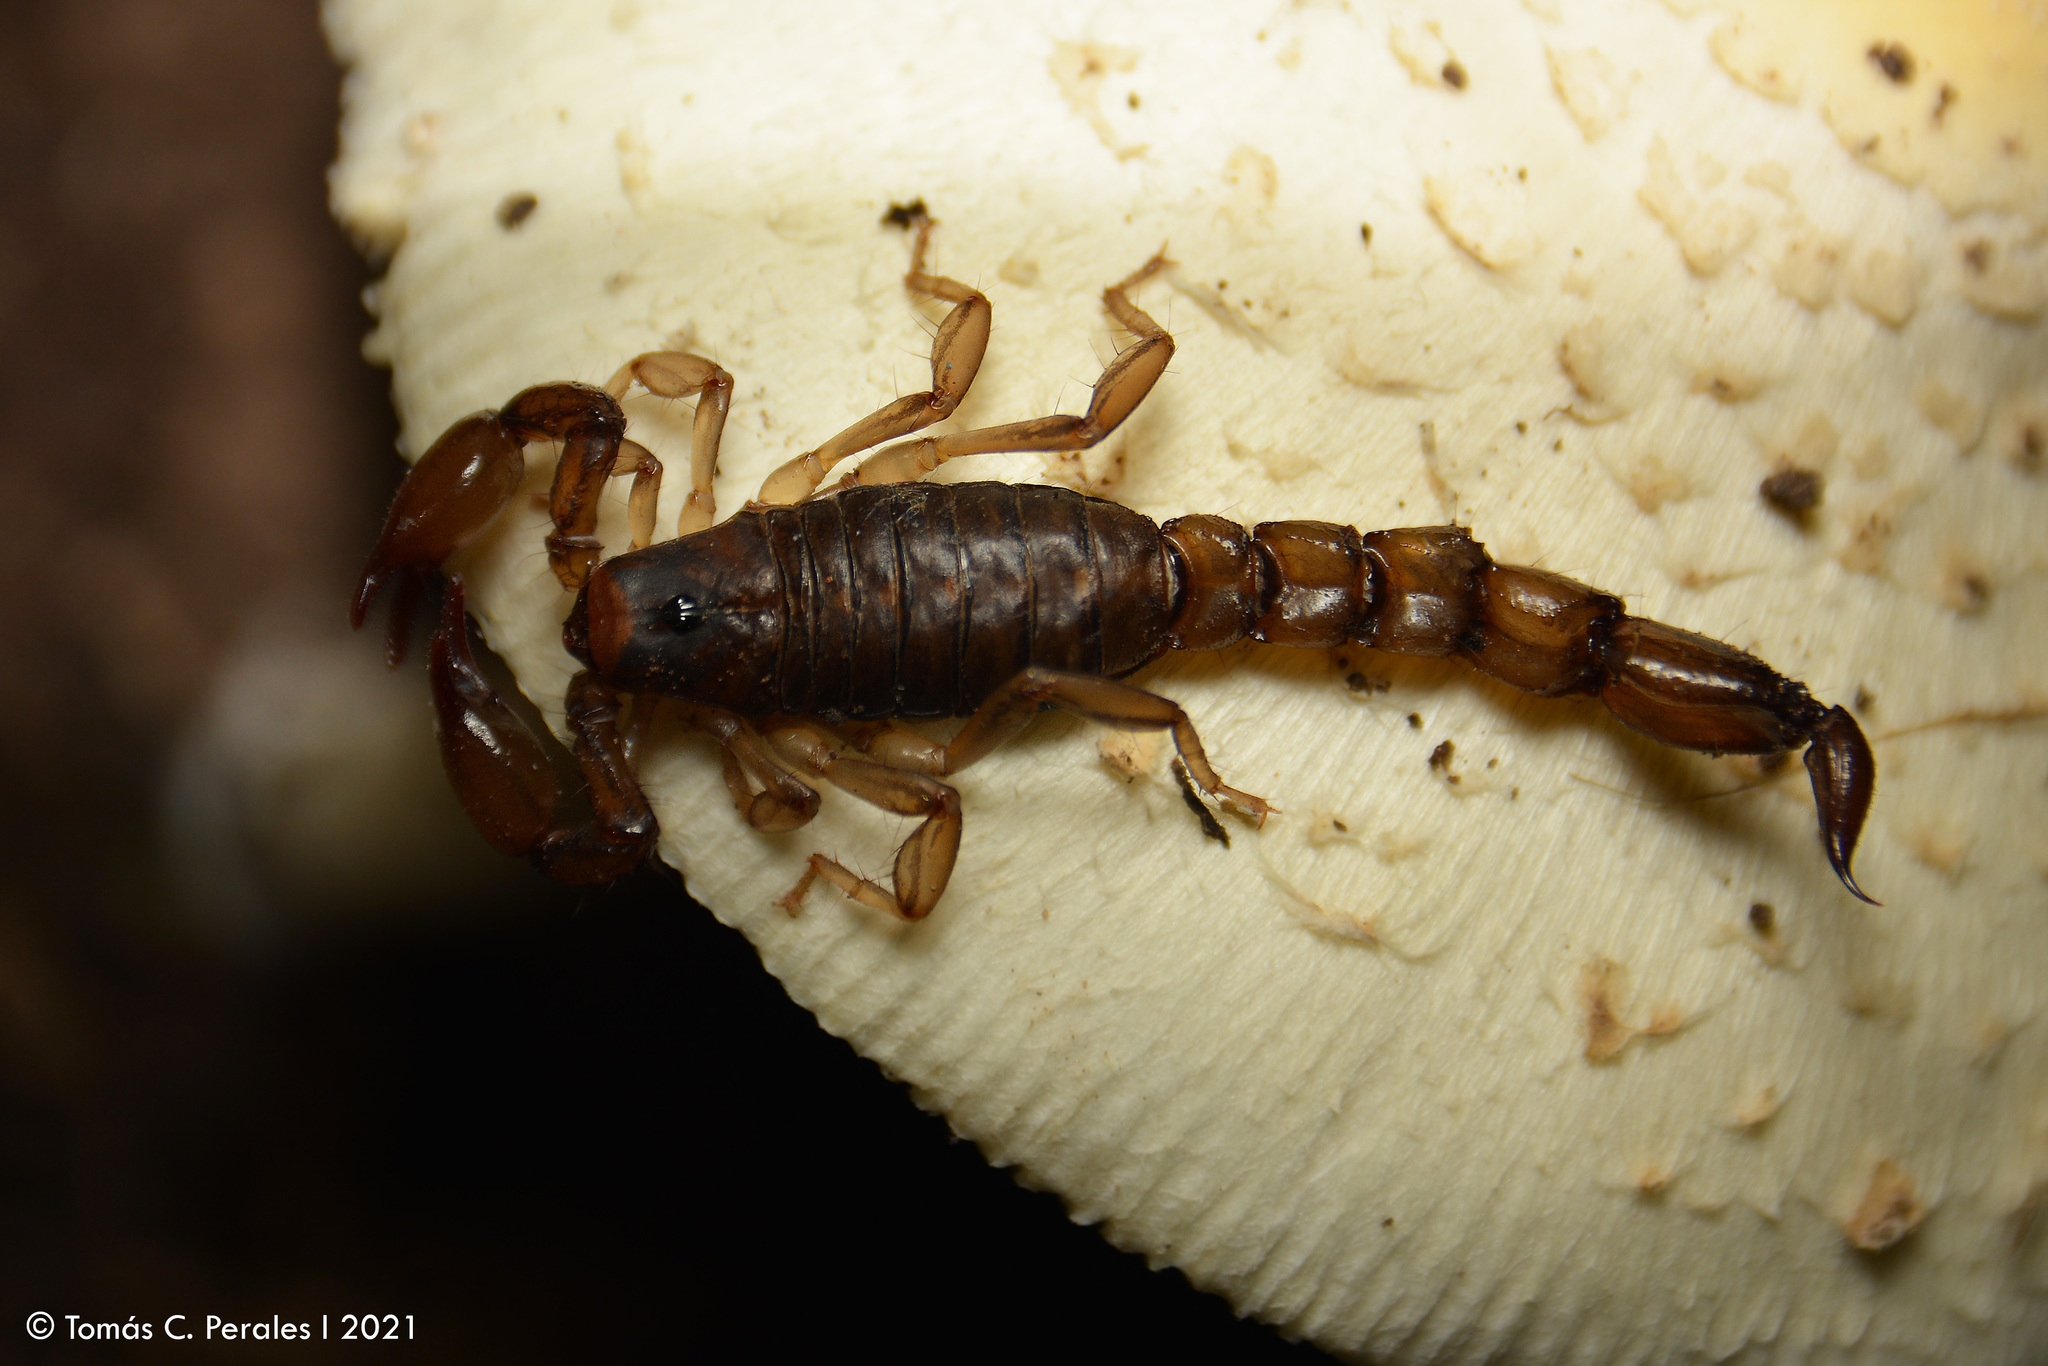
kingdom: Animalia
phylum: Arthropoda
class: Arachnida
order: Scorpiones
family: Bothriuridae
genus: Bothriurus
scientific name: Bothriurus cordubensis
